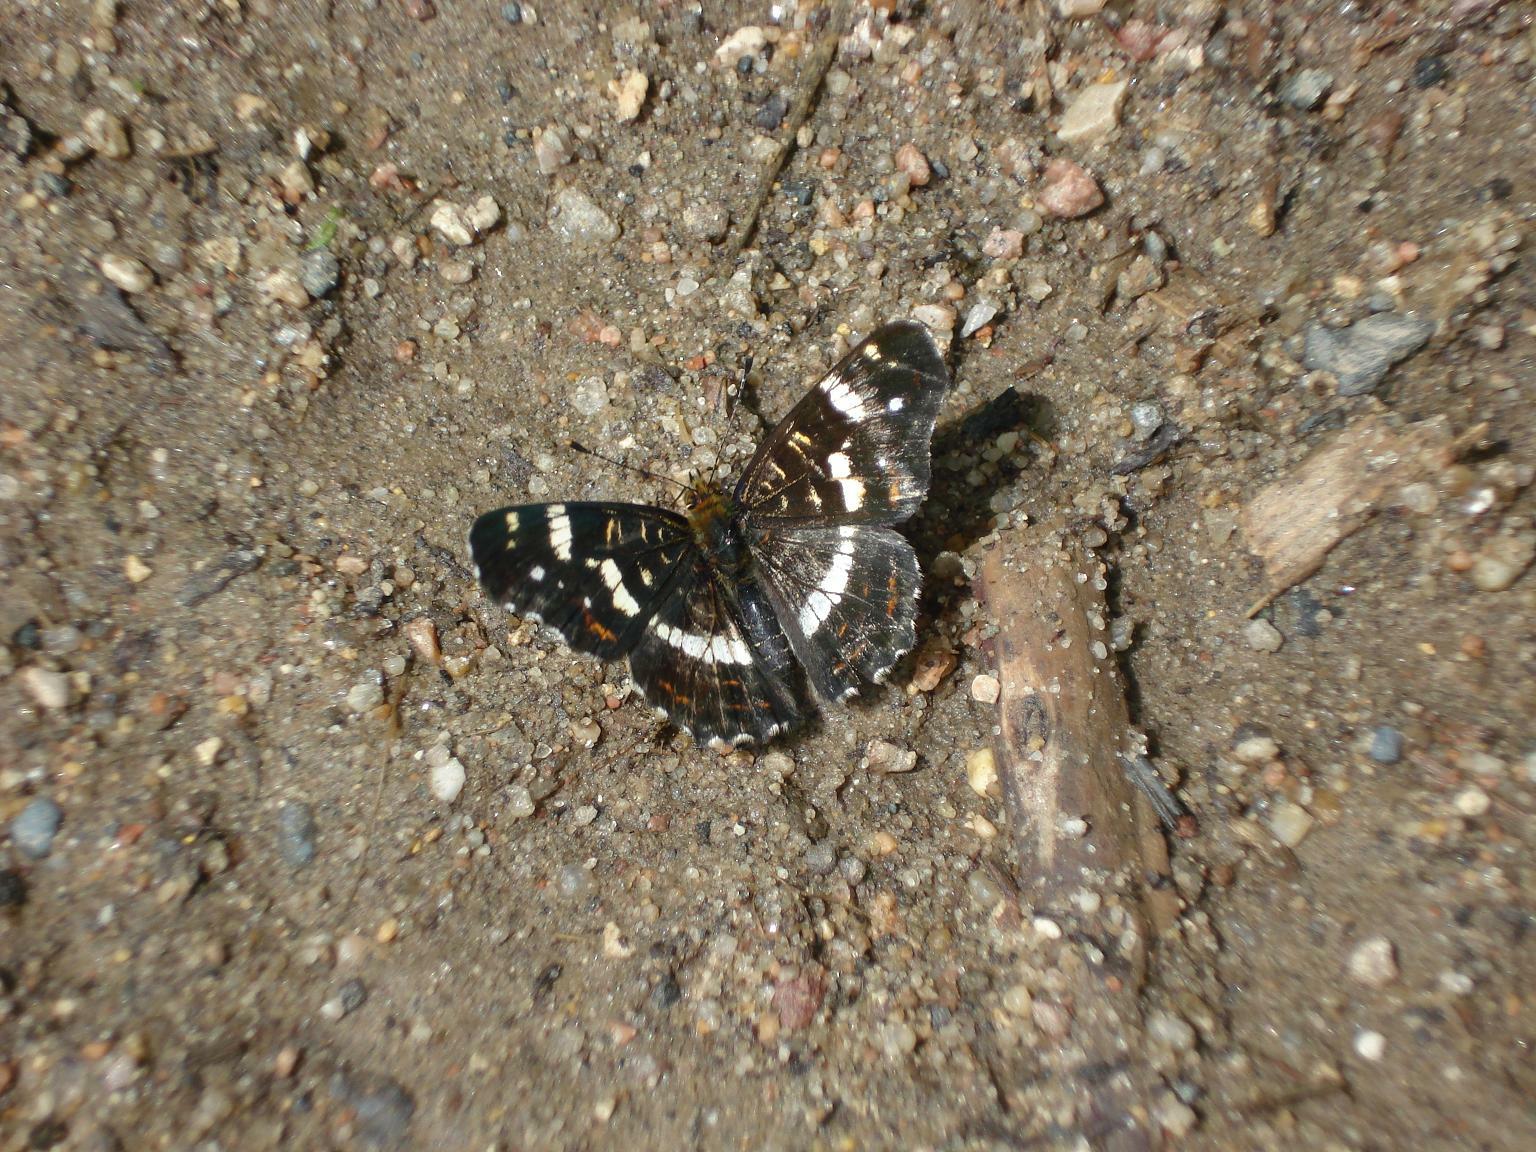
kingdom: Animalia
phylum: Arthropoda
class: Insecta
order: Lepidoptera
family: Nymphalidae
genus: Araschnia
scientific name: Araschnia levana
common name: Map butterfly
